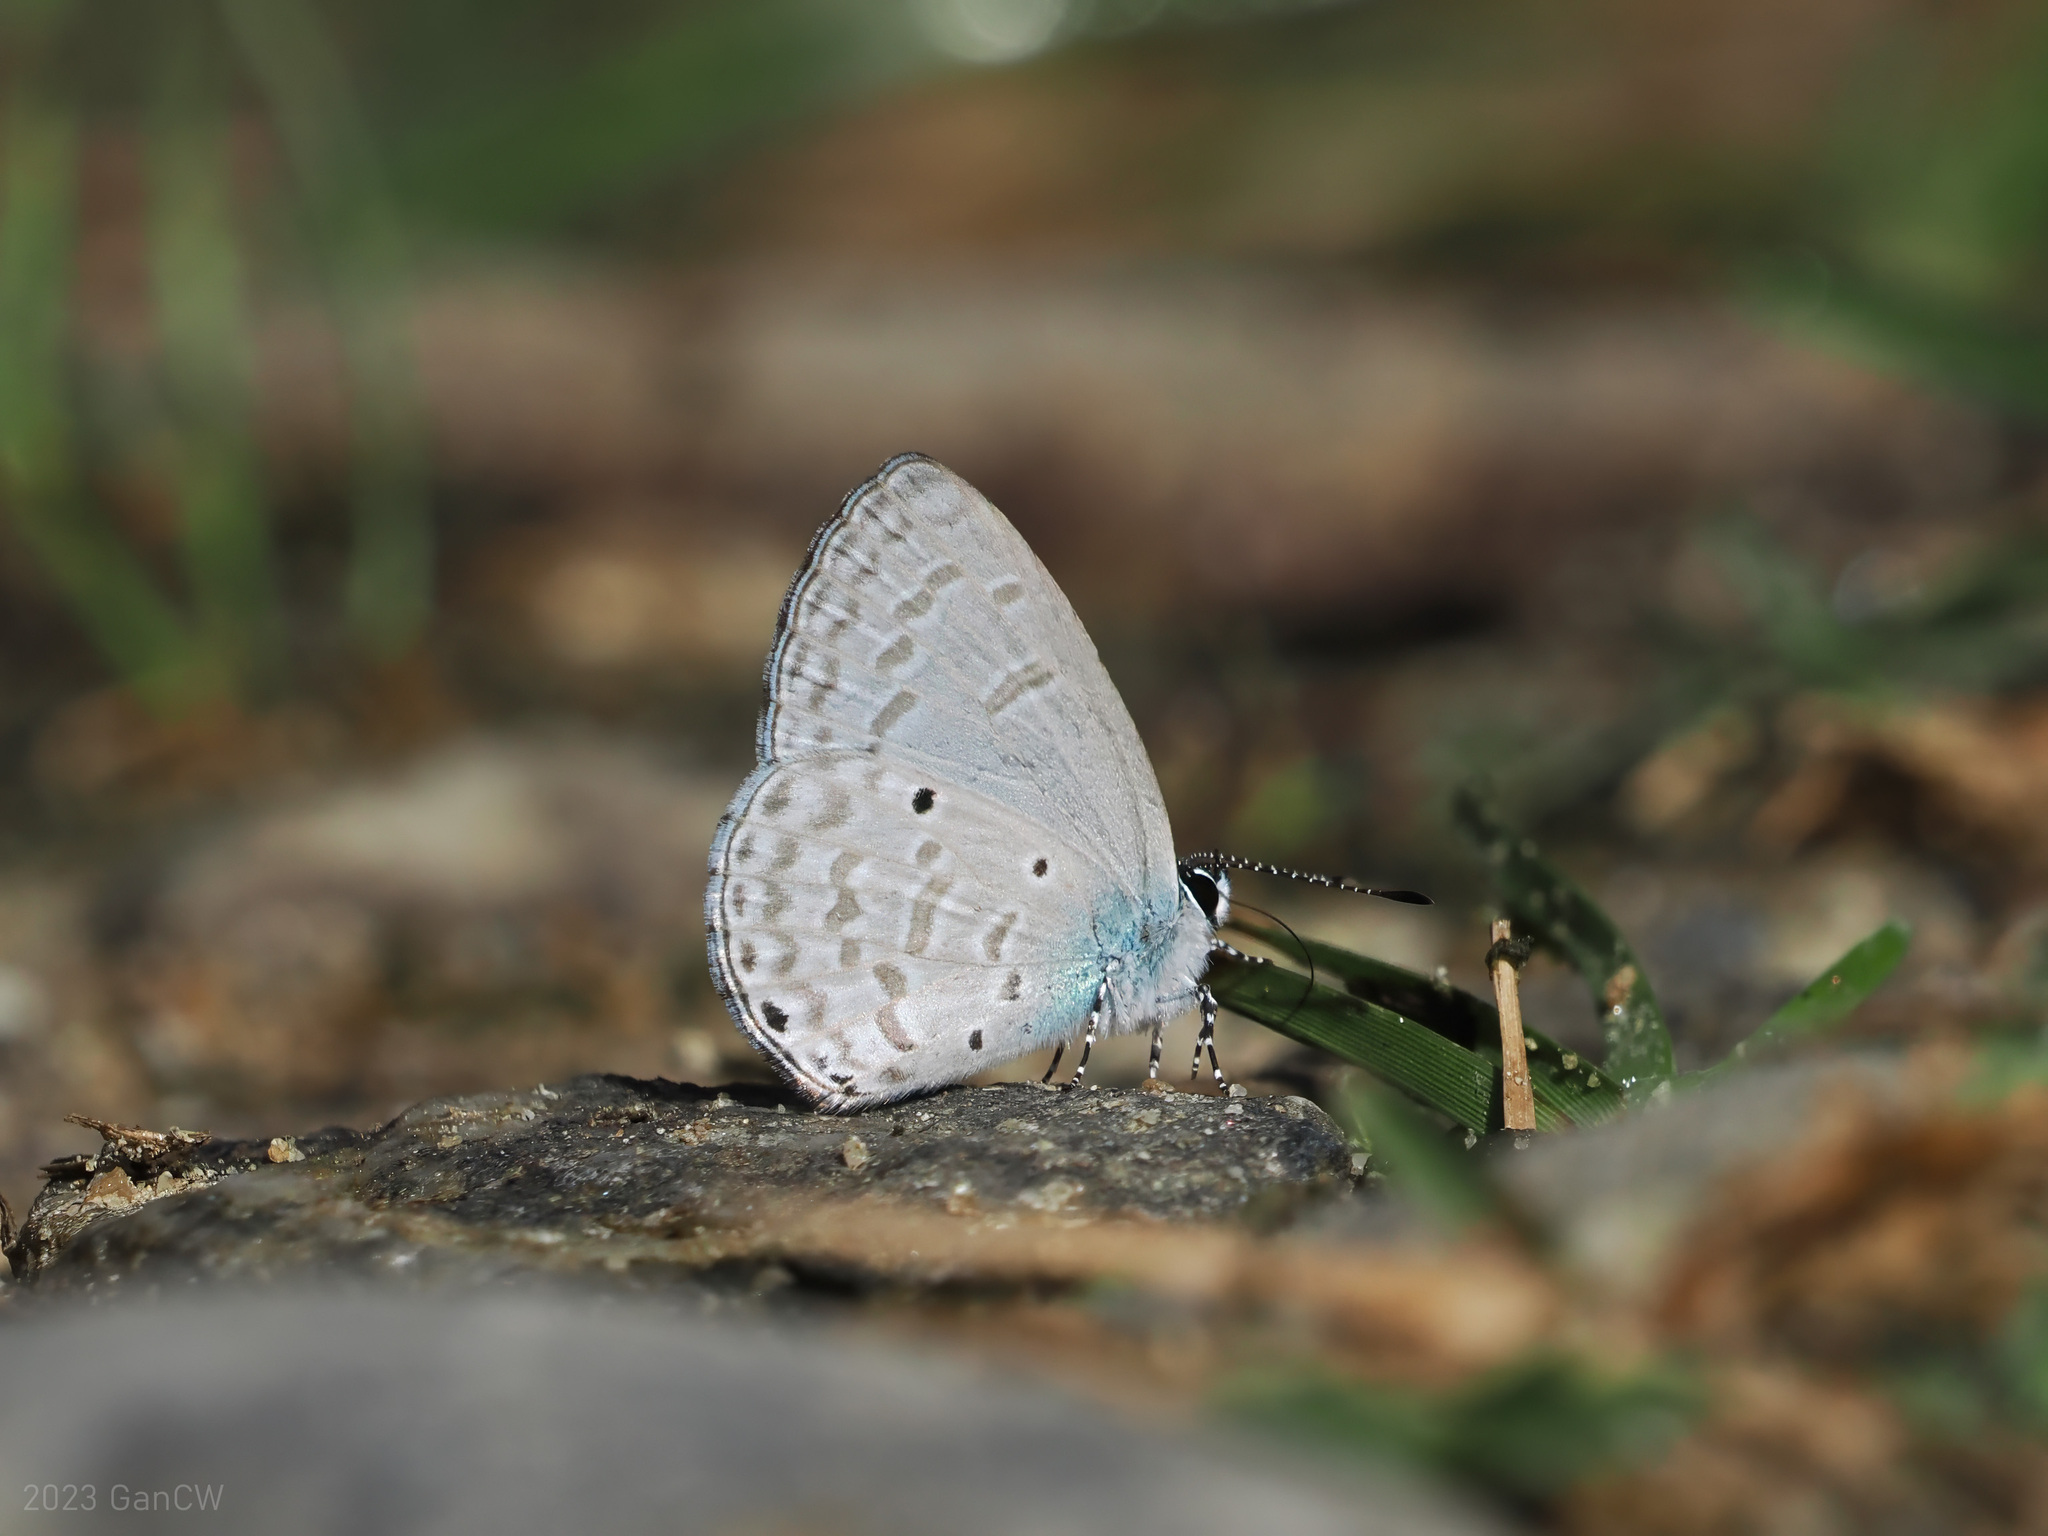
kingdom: Animalia
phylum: Arthropoda
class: Insecta
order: Lepidoptera
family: Lycaenidae
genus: Monodontides
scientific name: Monodontides
